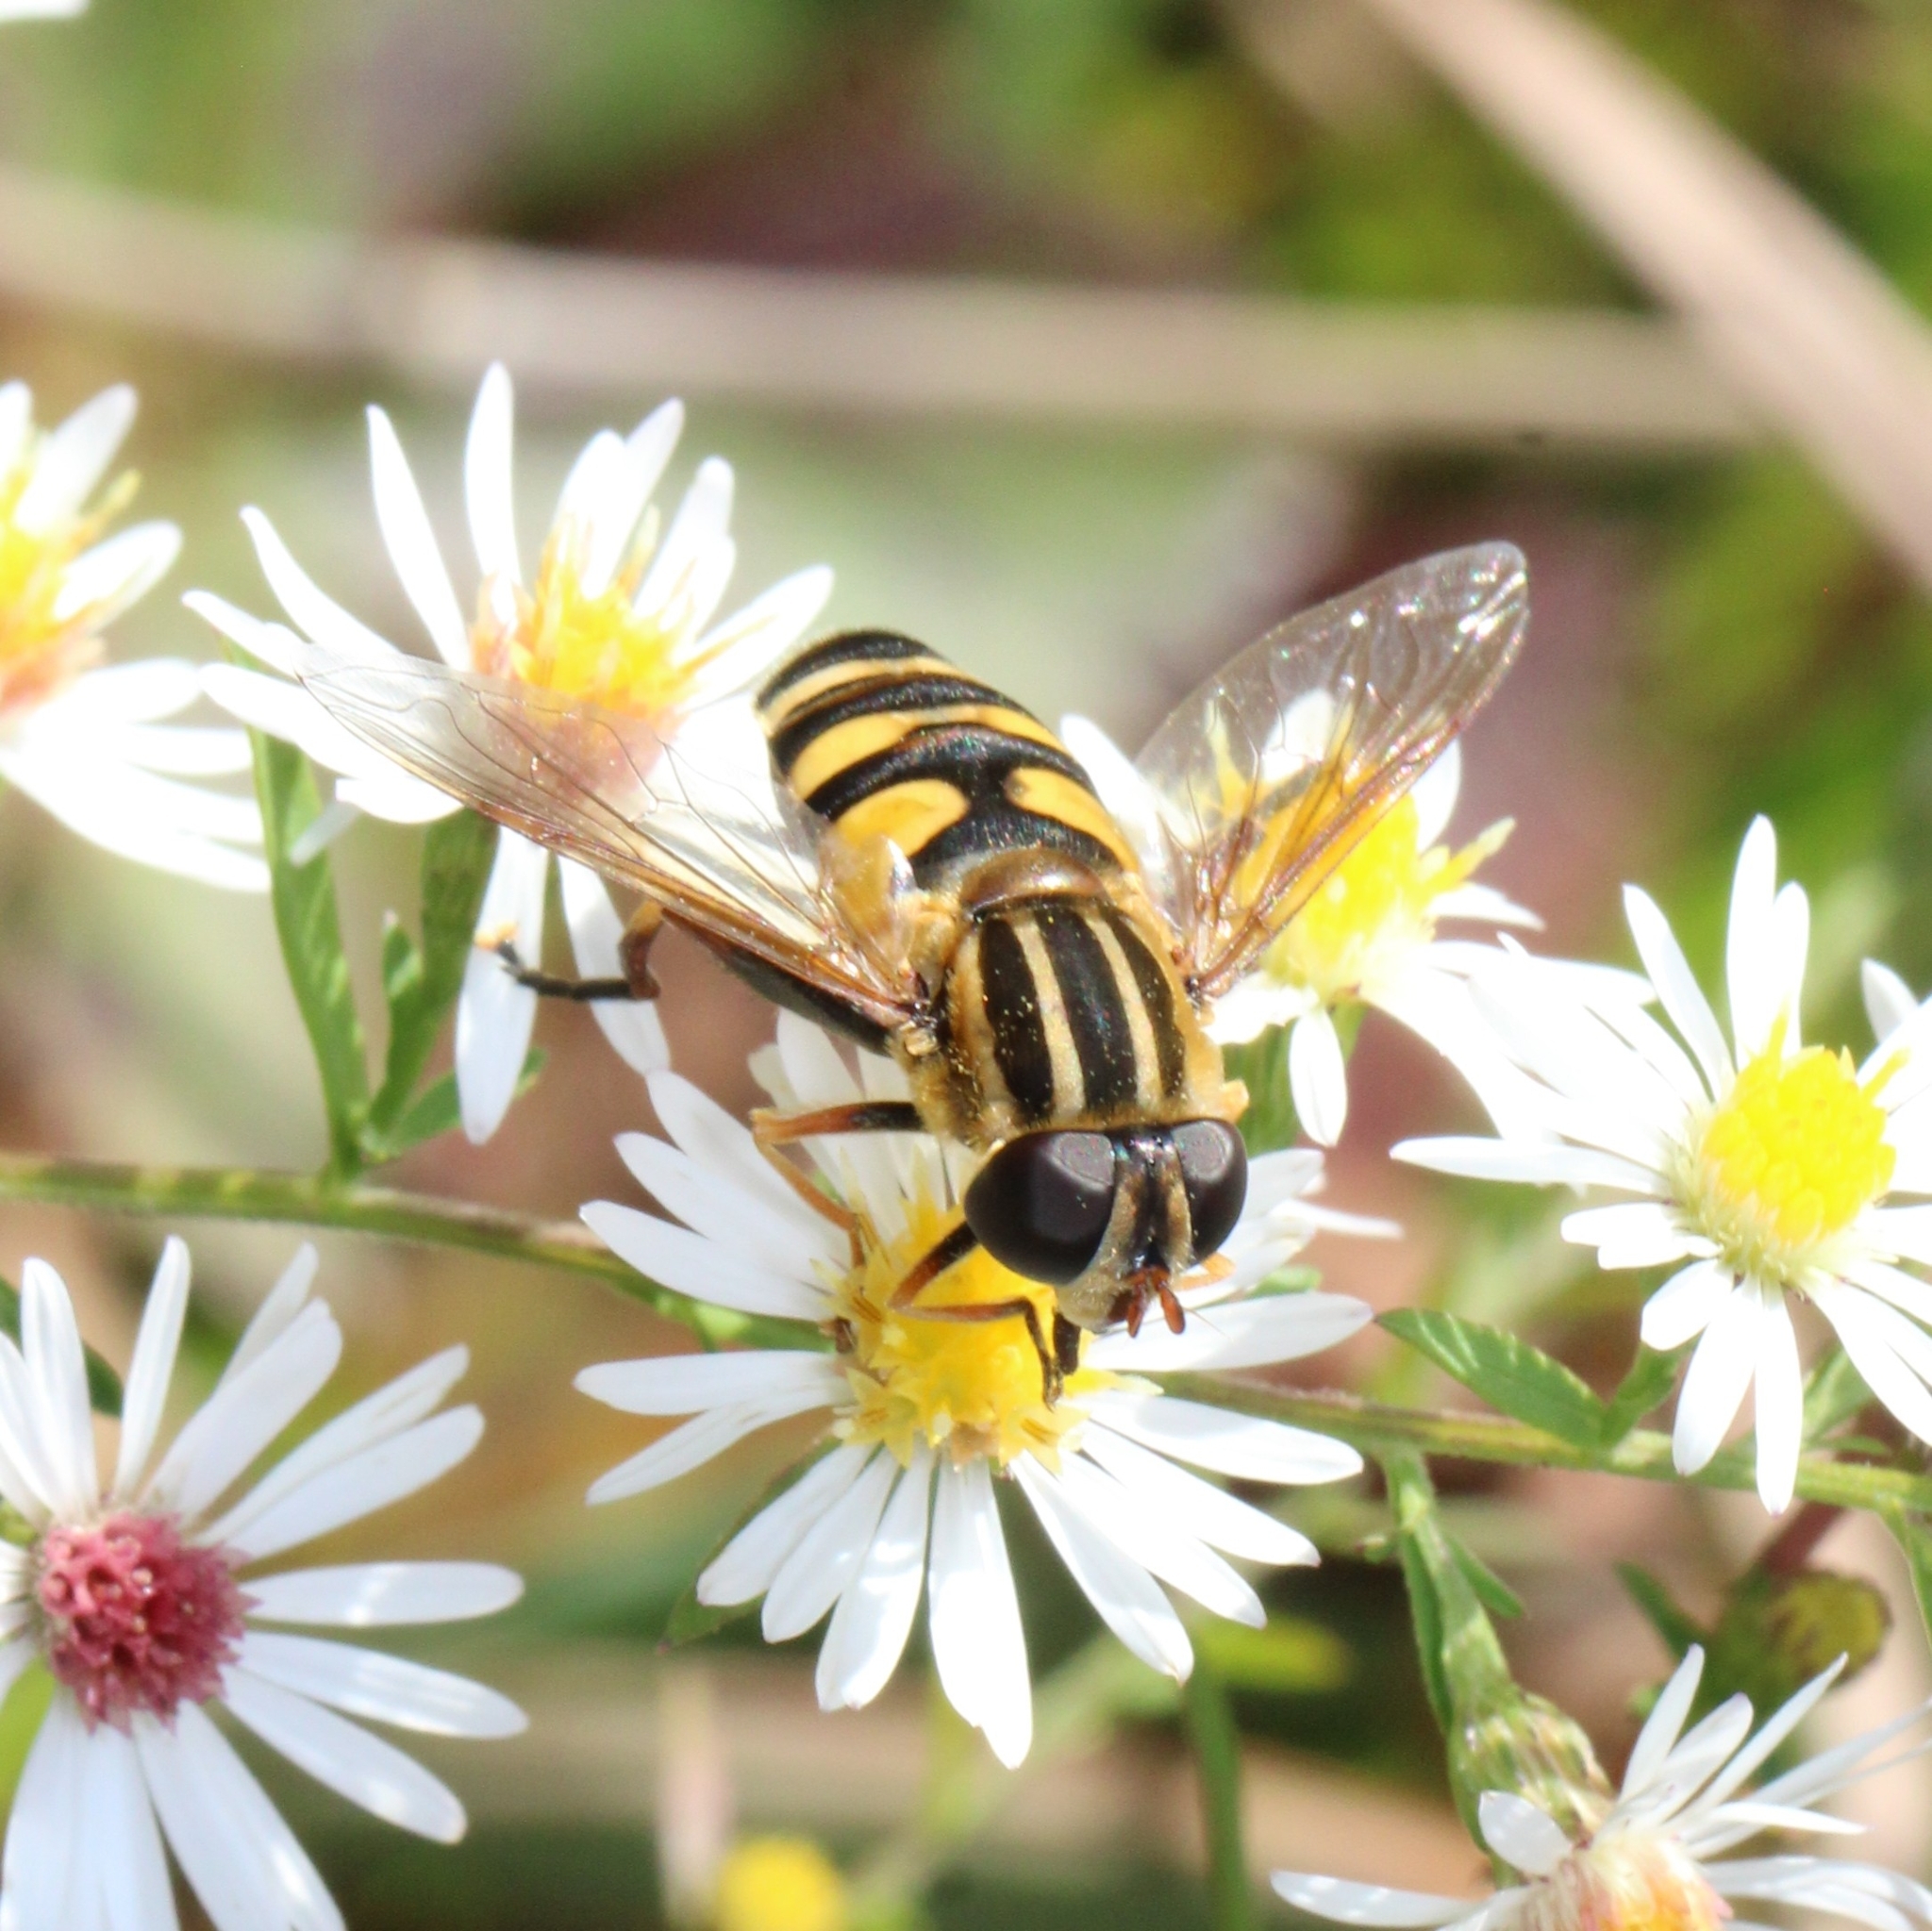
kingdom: Animalia
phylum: Arthropoda
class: Insecta
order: Diptera
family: Syrphidae
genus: Helophilus
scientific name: Helophilus fasciatus
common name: Narrow-headed marsh fly
